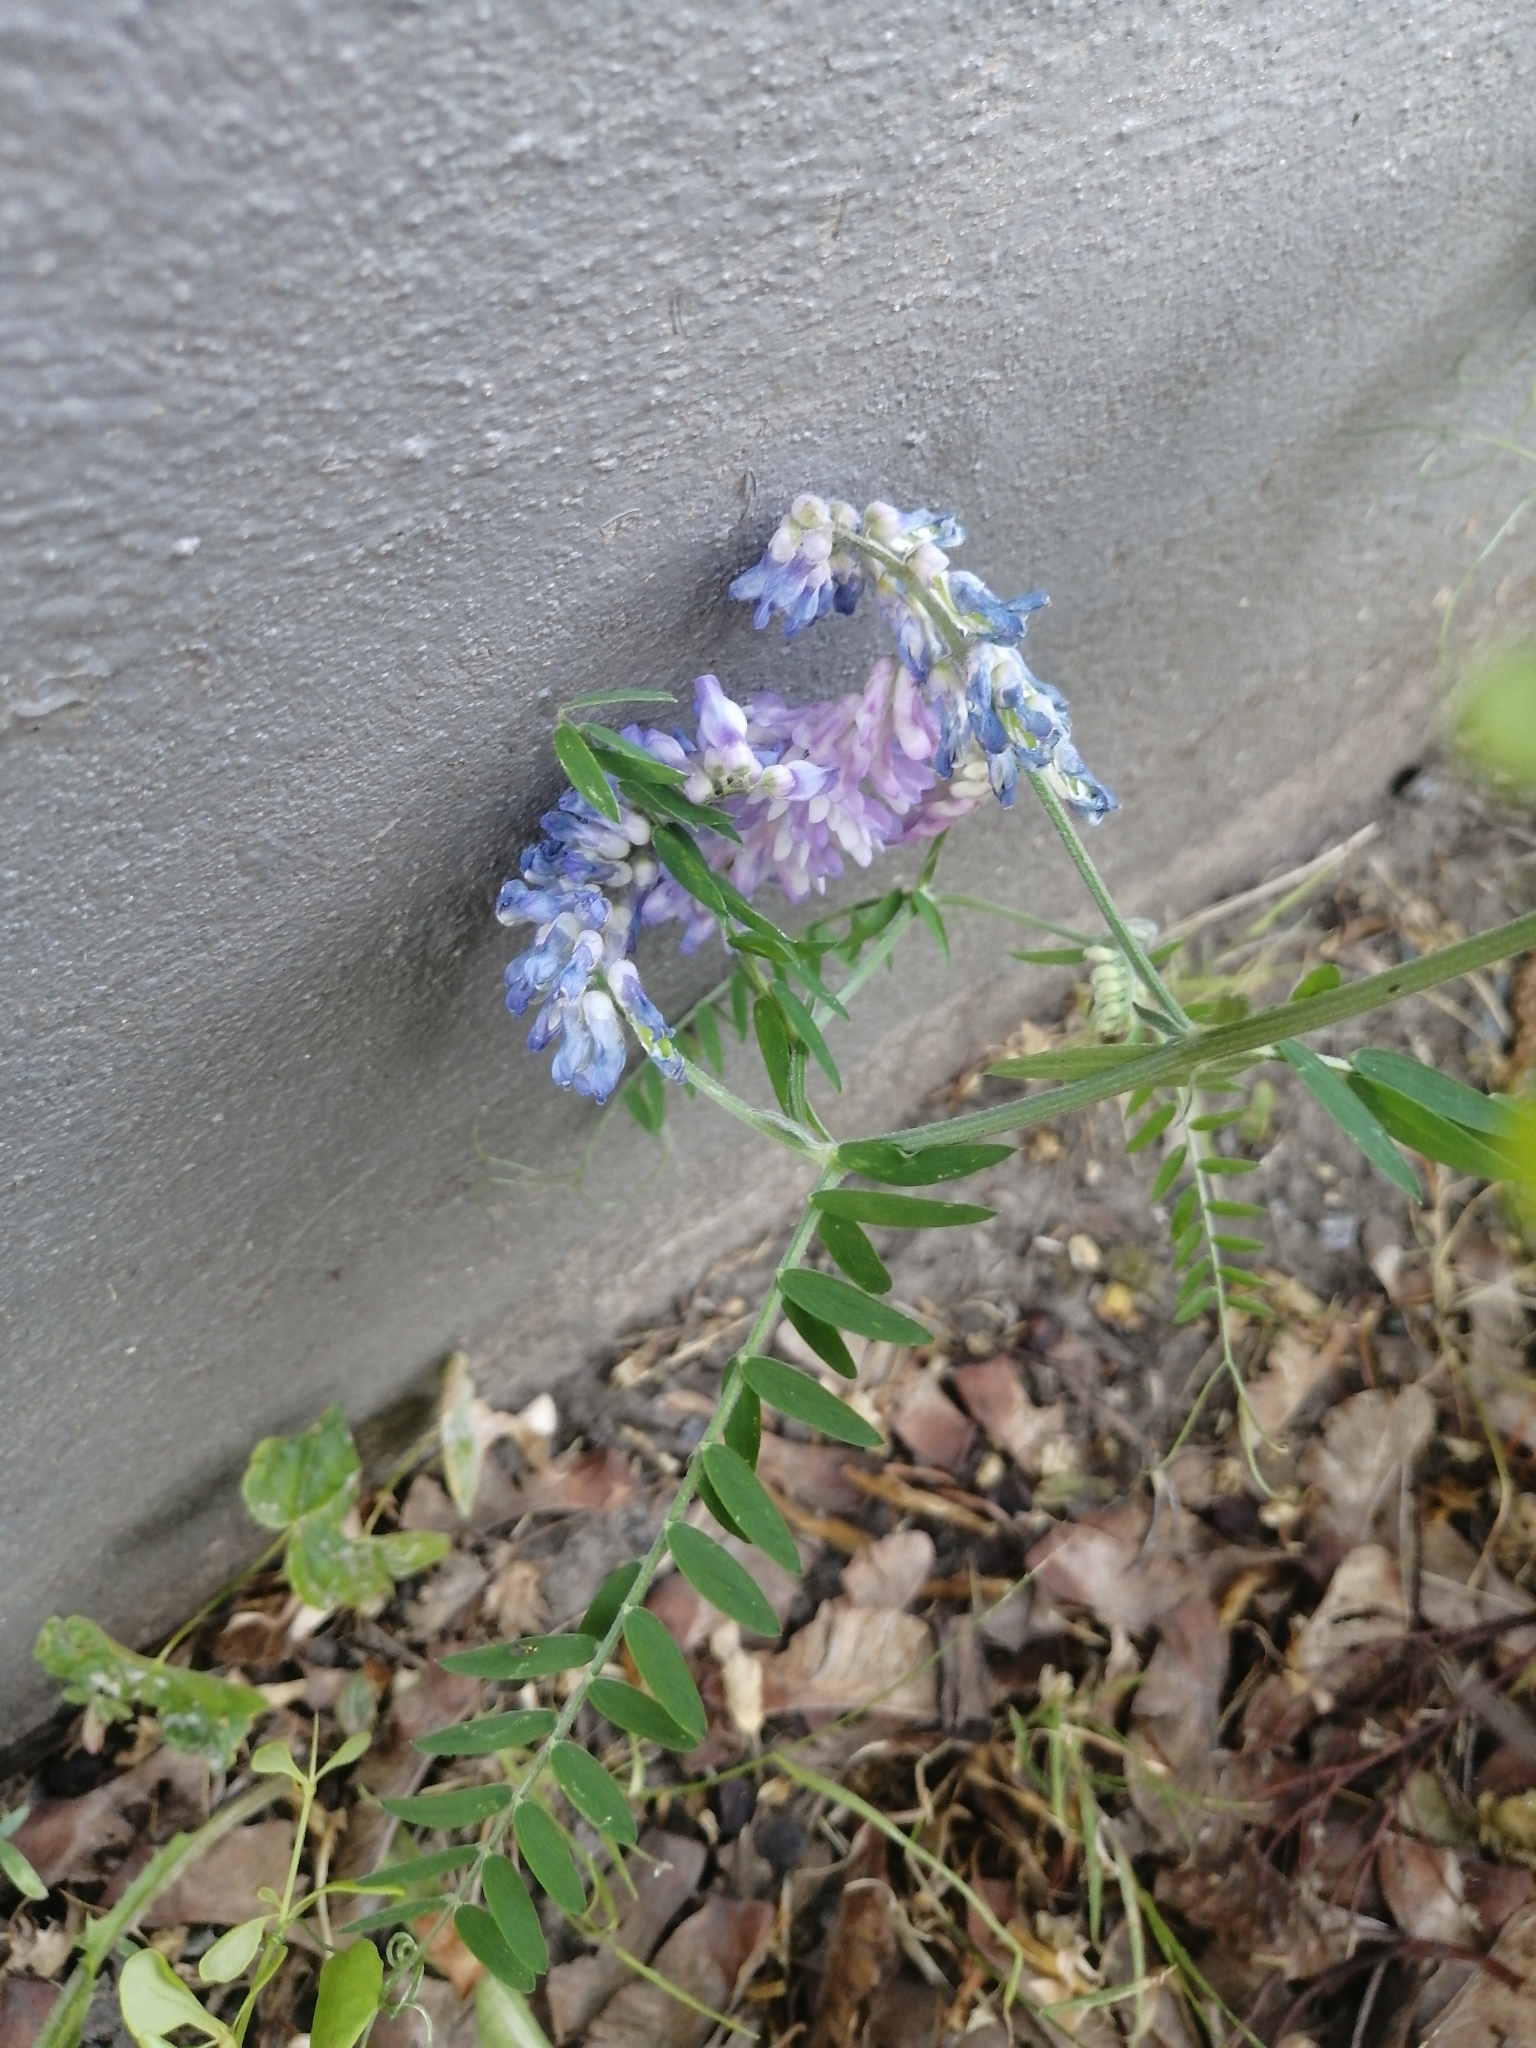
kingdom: Plantae
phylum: Tracheophyta
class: Magnoliopsida
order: Fabales
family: Fabaceae
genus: Vicia
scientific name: Vicia cracca
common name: Bird vetch
